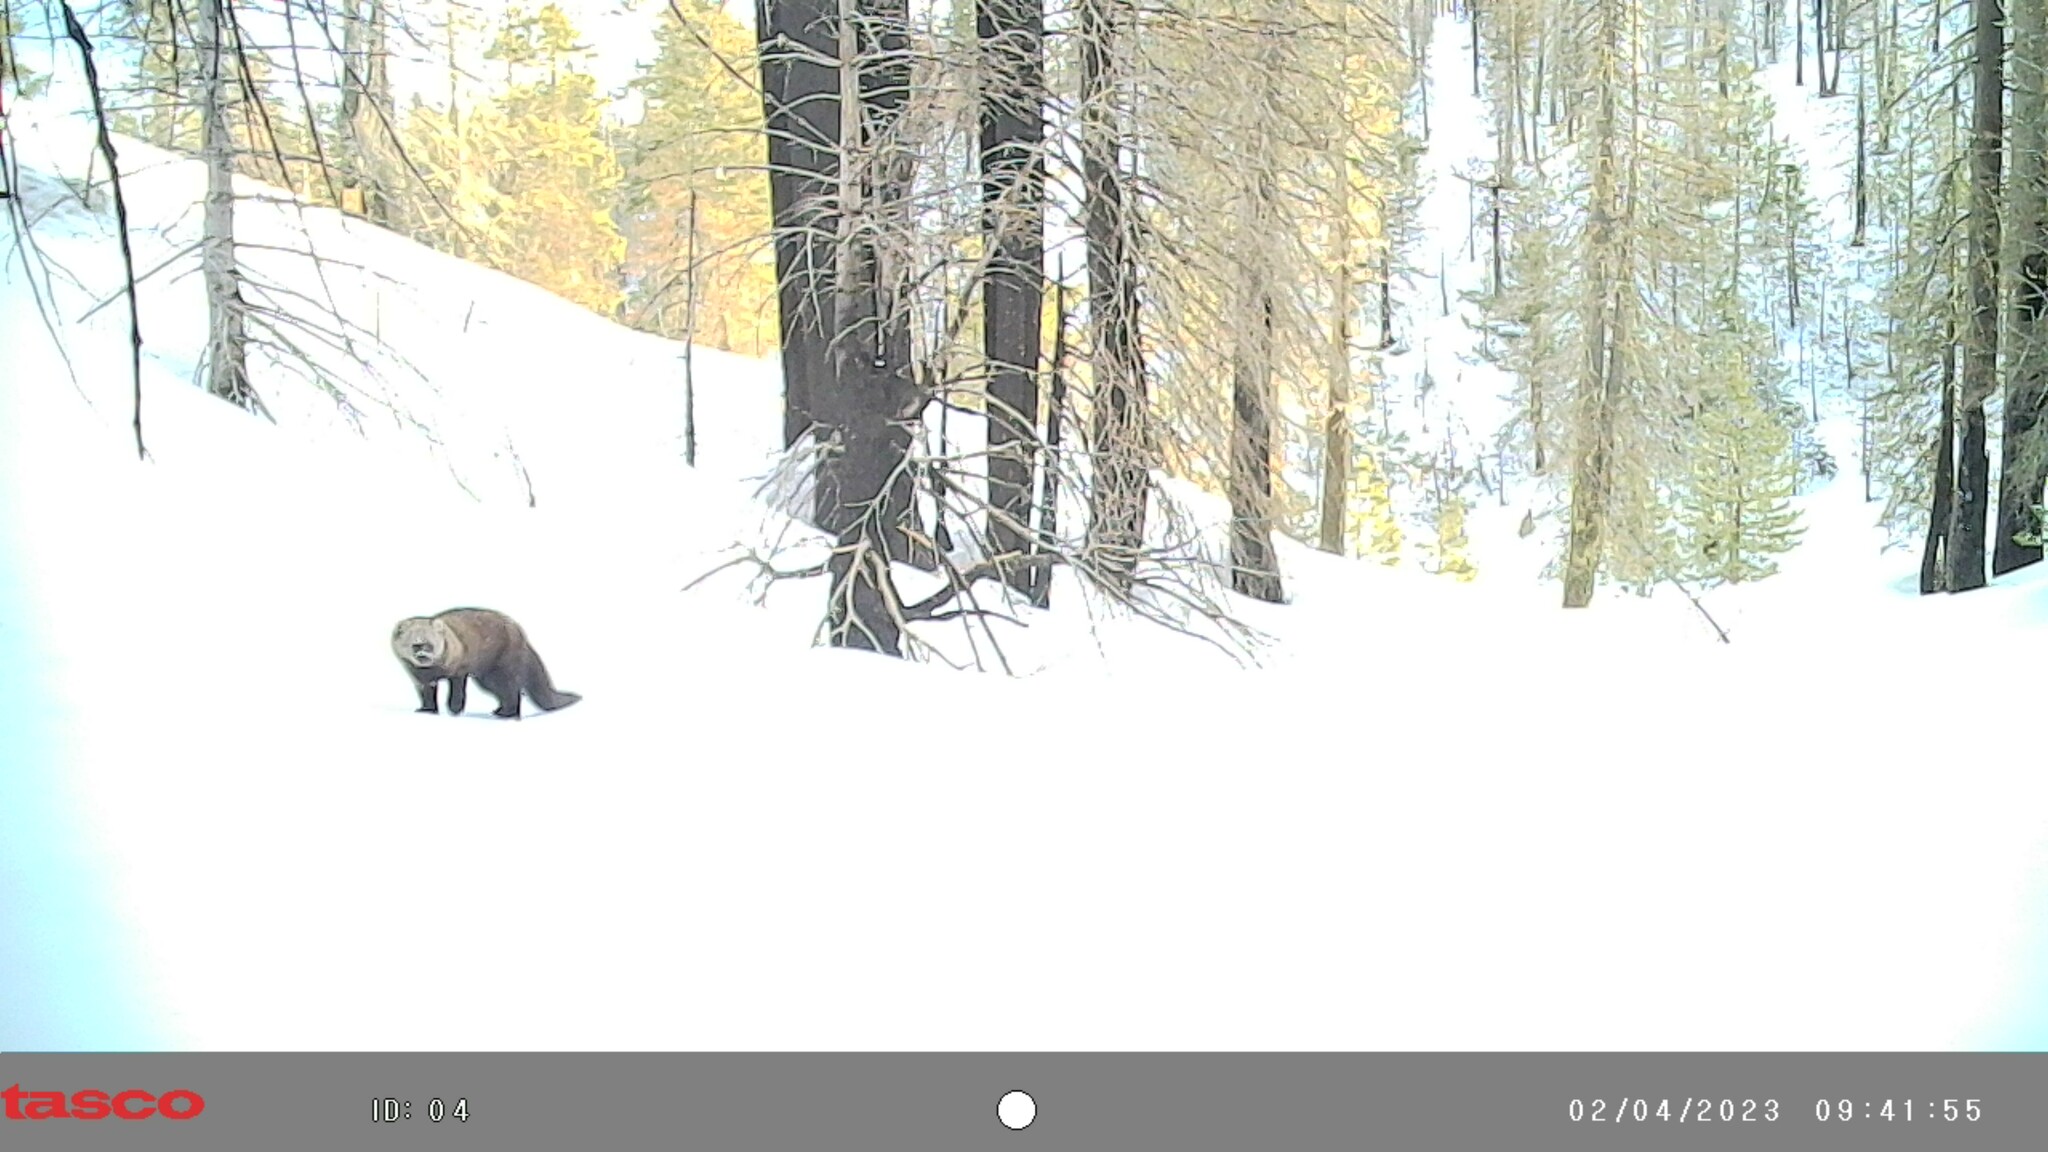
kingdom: Animalia
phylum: Chordata
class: Mammalia
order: Carnivora
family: Mustelidae
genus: Pekania
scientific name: Pekania pennanti
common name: Fisher
